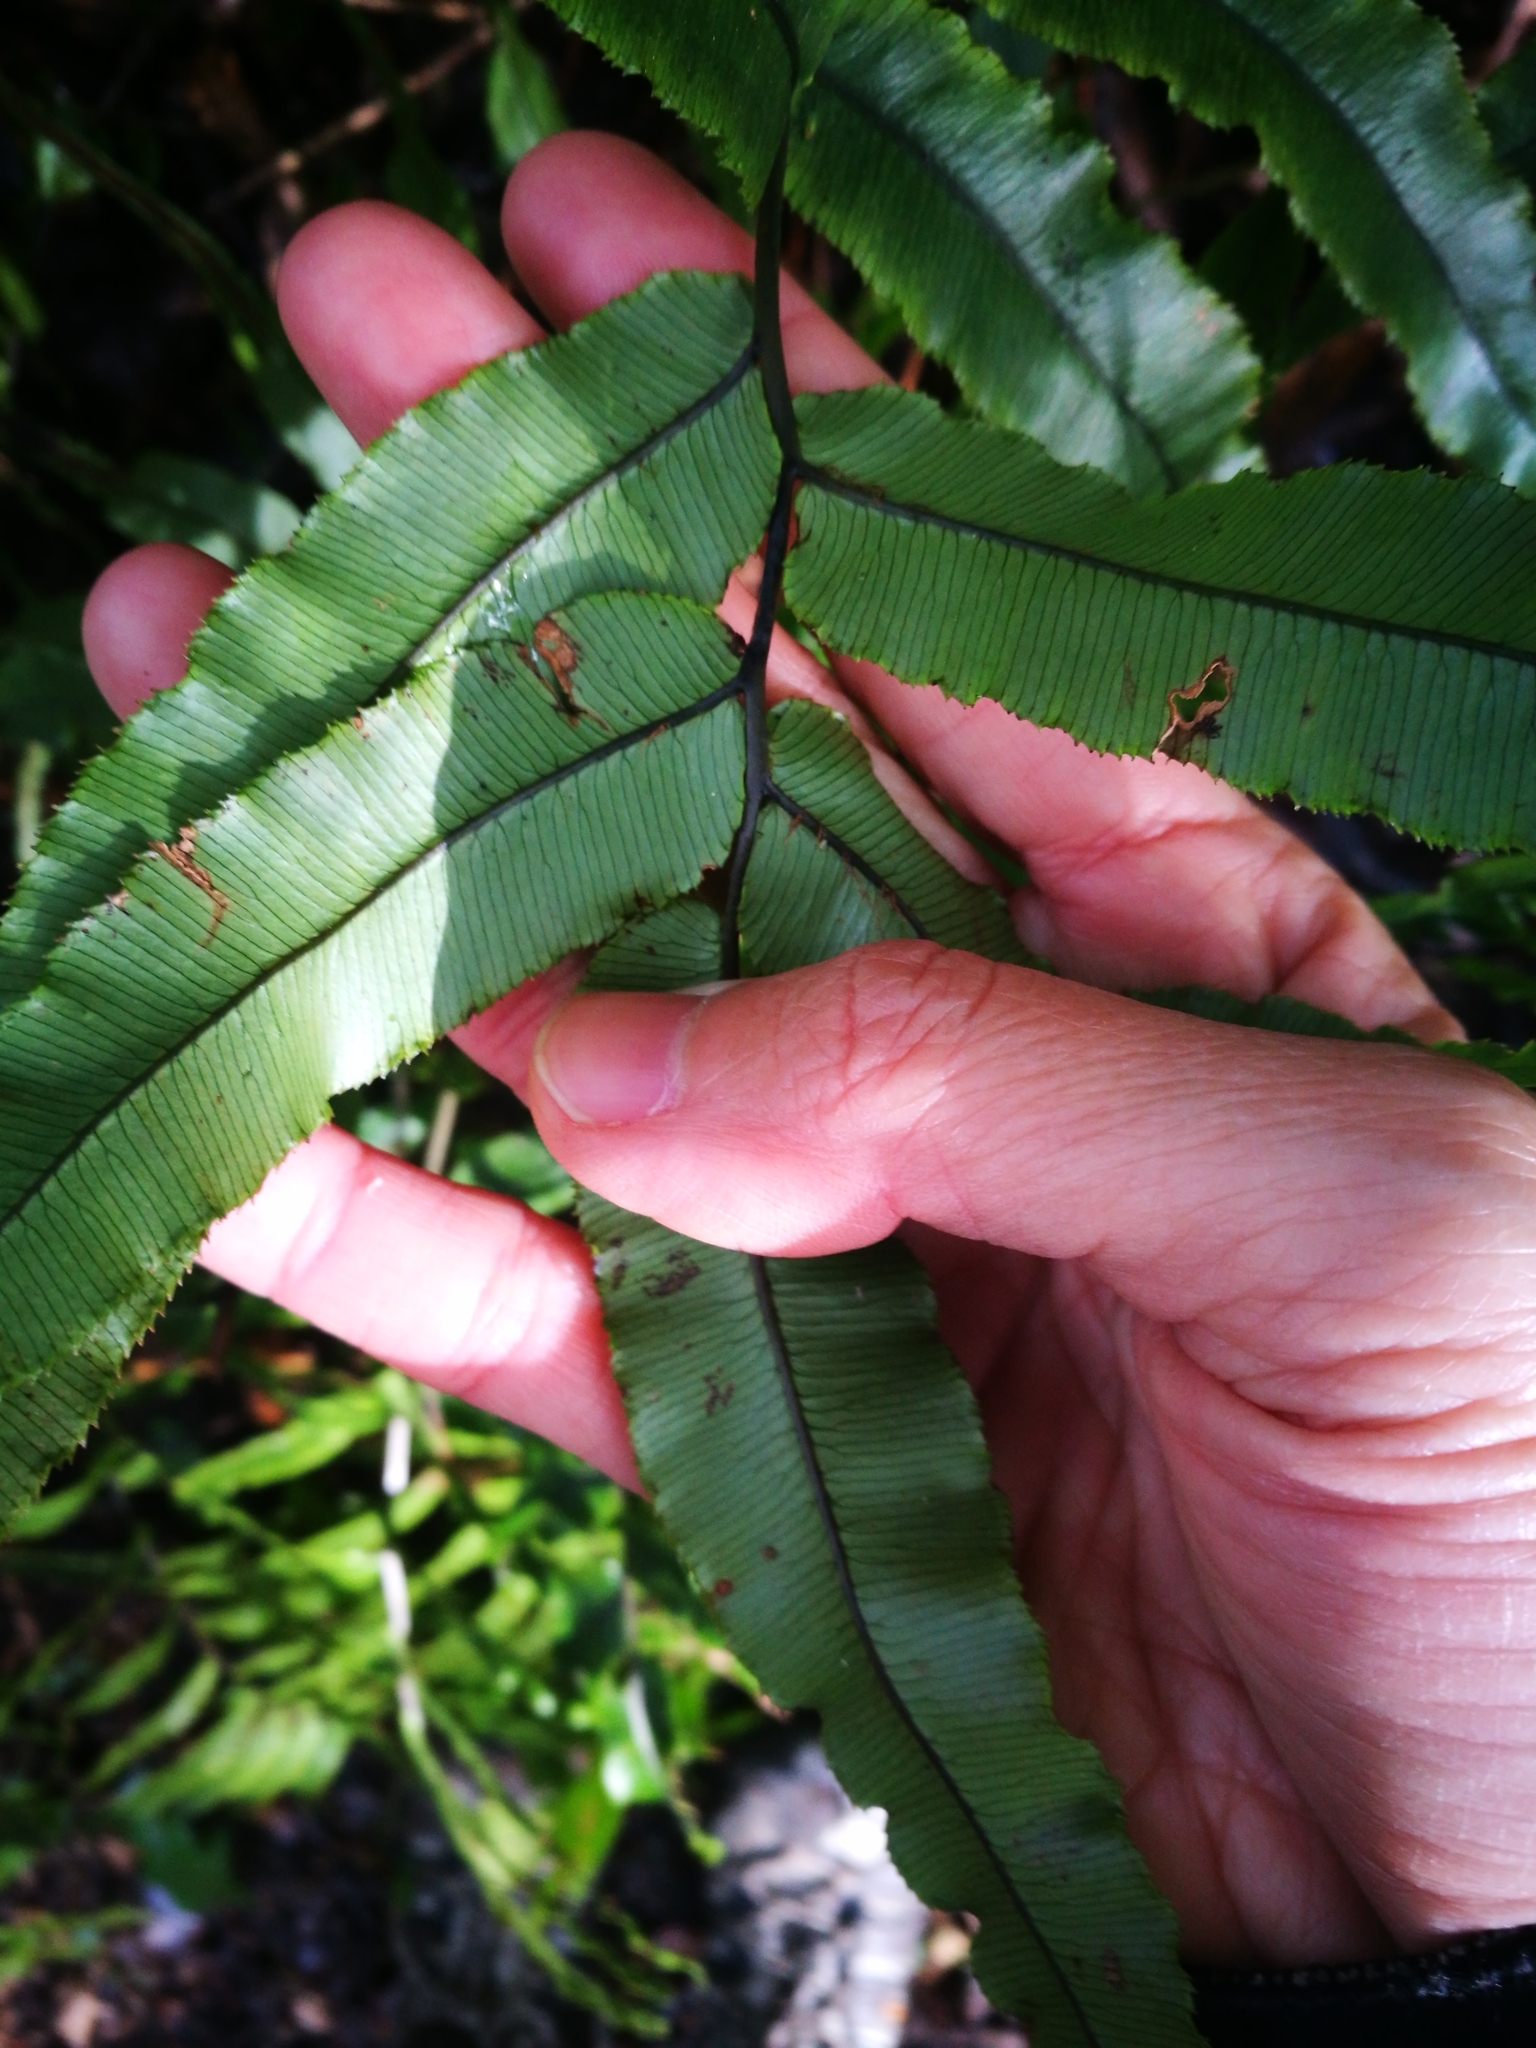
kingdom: Plantae
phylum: Tracheophyta
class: Polypodiopsida
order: Polypodiales
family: Blechnaceae
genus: Parablechnum
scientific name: Parablechnum procerum
